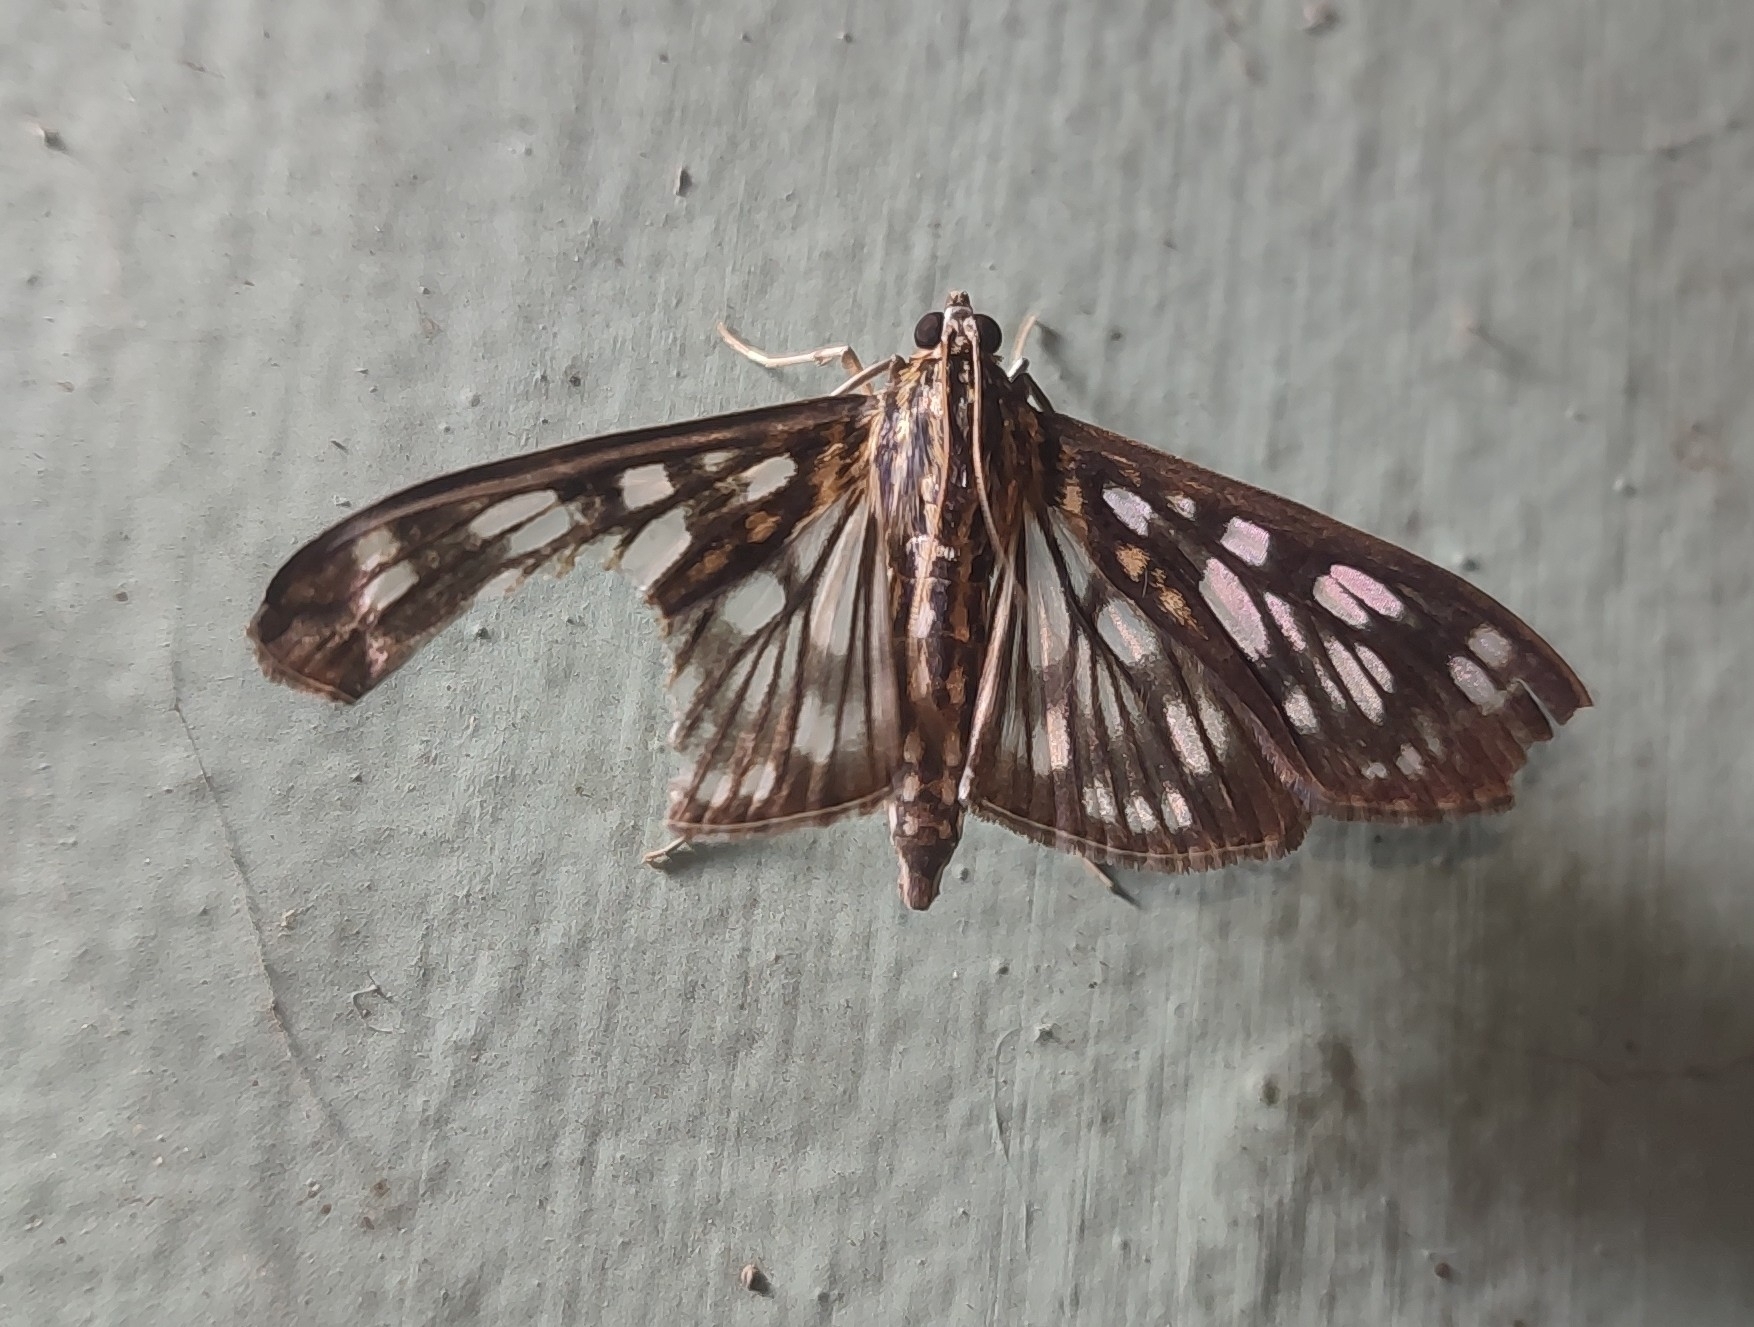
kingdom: Animalia
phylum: Arthropoda
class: Insecta
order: Lepidoptera
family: Crambidae
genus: Pygospila
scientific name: Pygospila tyres
